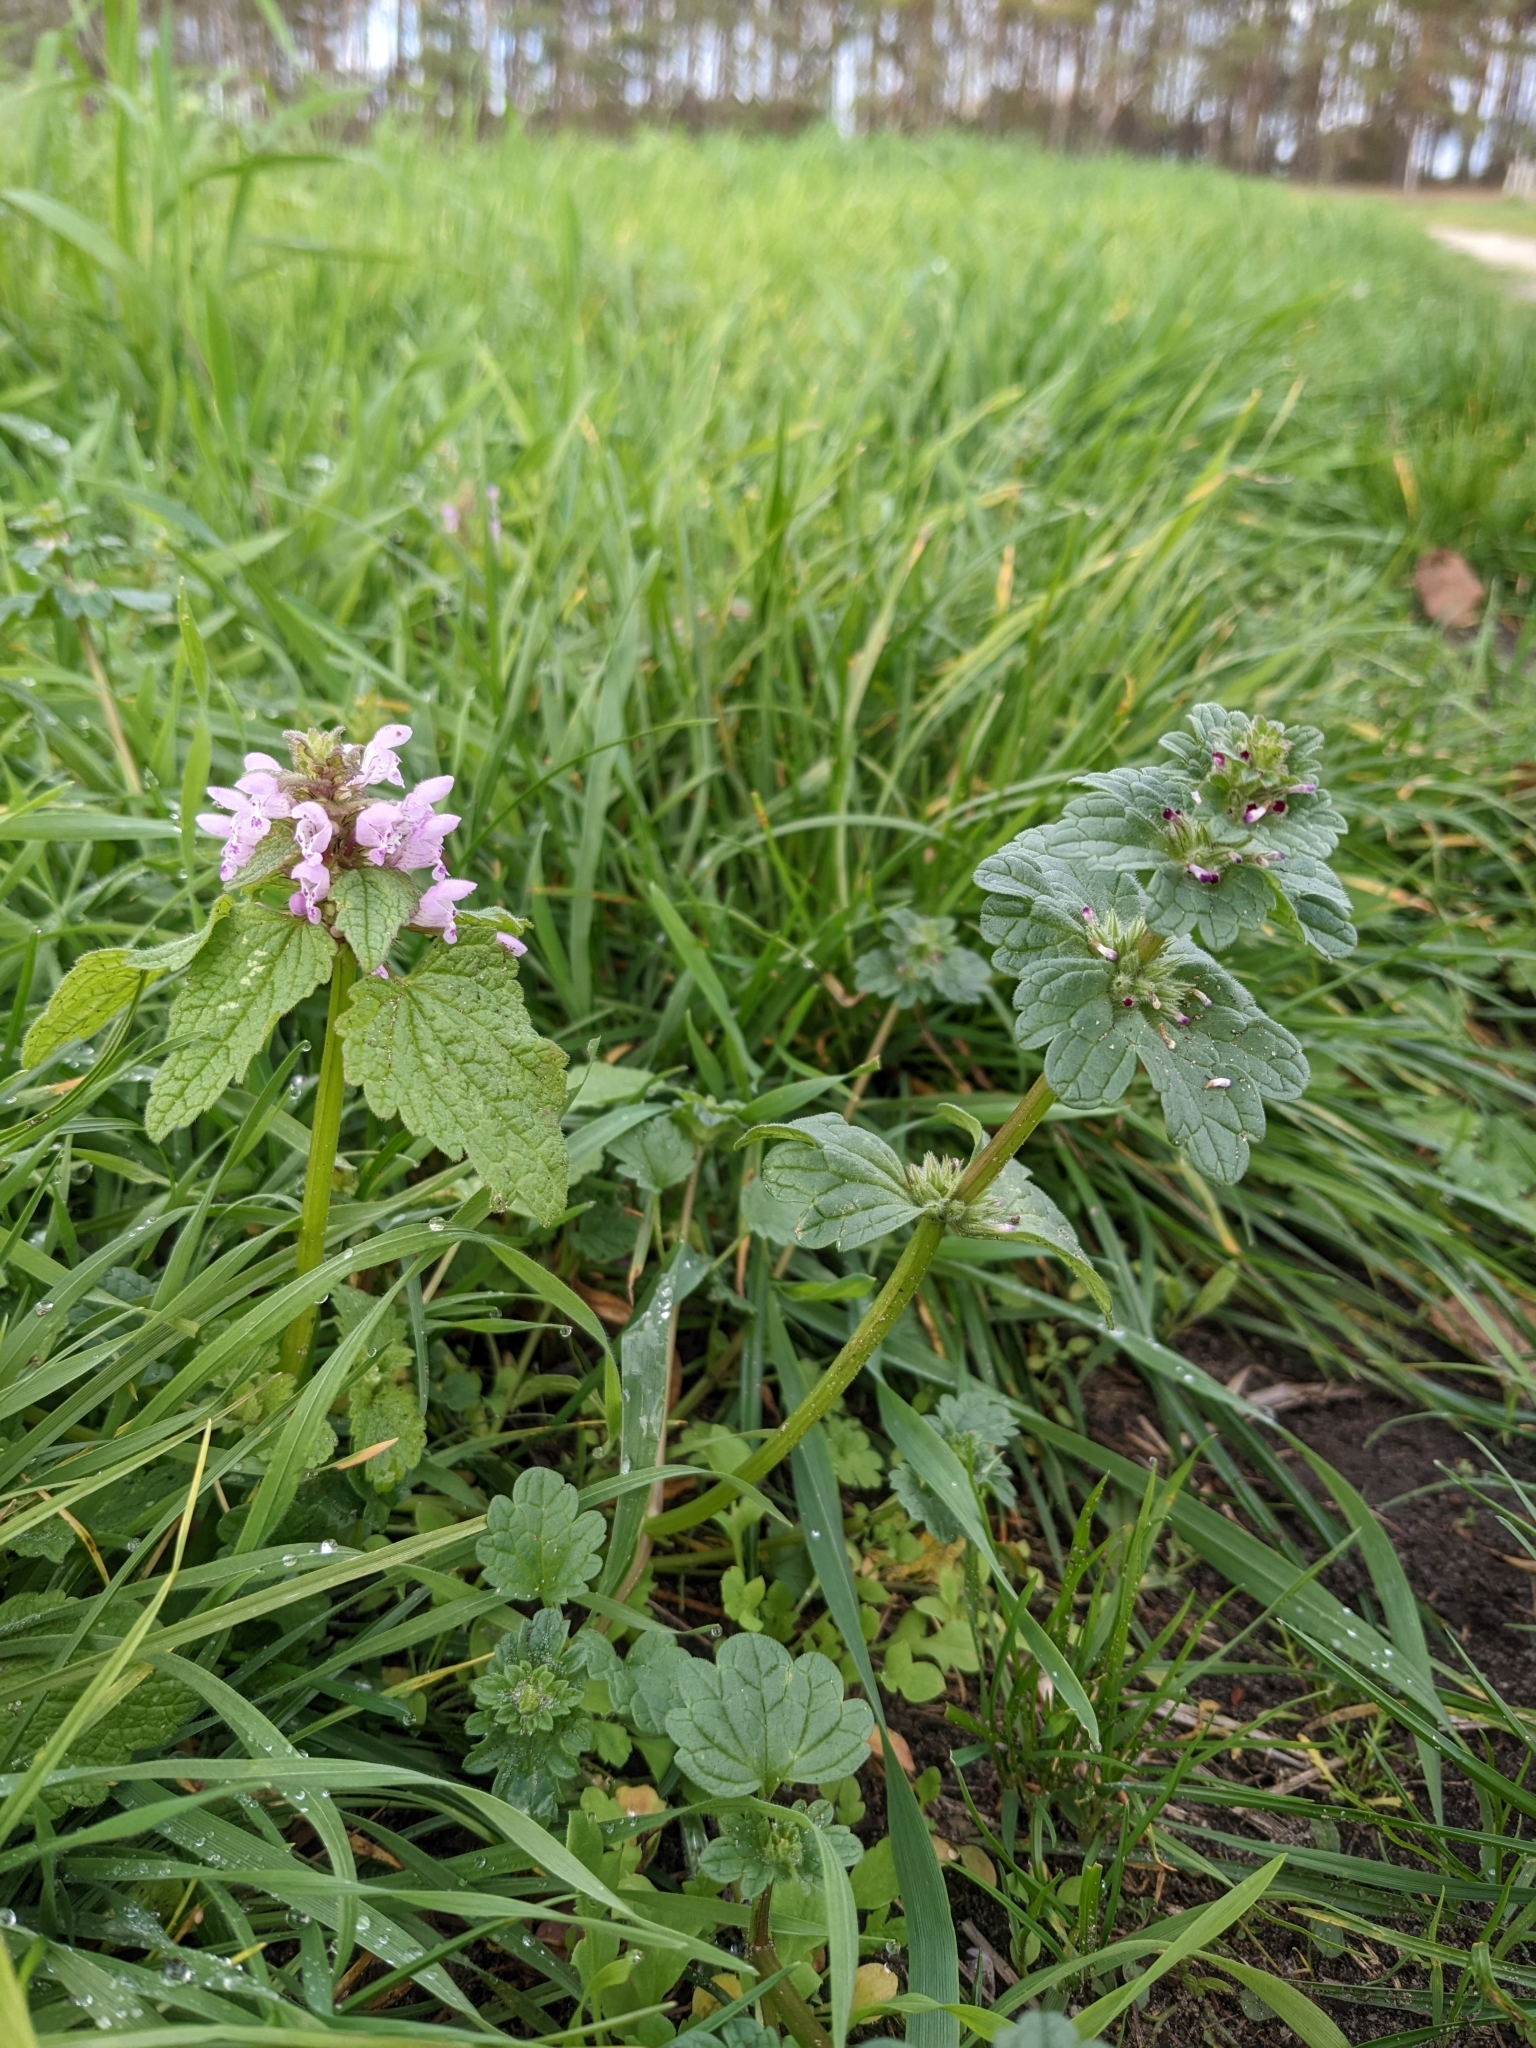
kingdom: Plantae
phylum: Tracheophyta
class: Magnoliopsida
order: Lamiales
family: Lamiaceae
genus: Lamium
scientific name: Lamium
